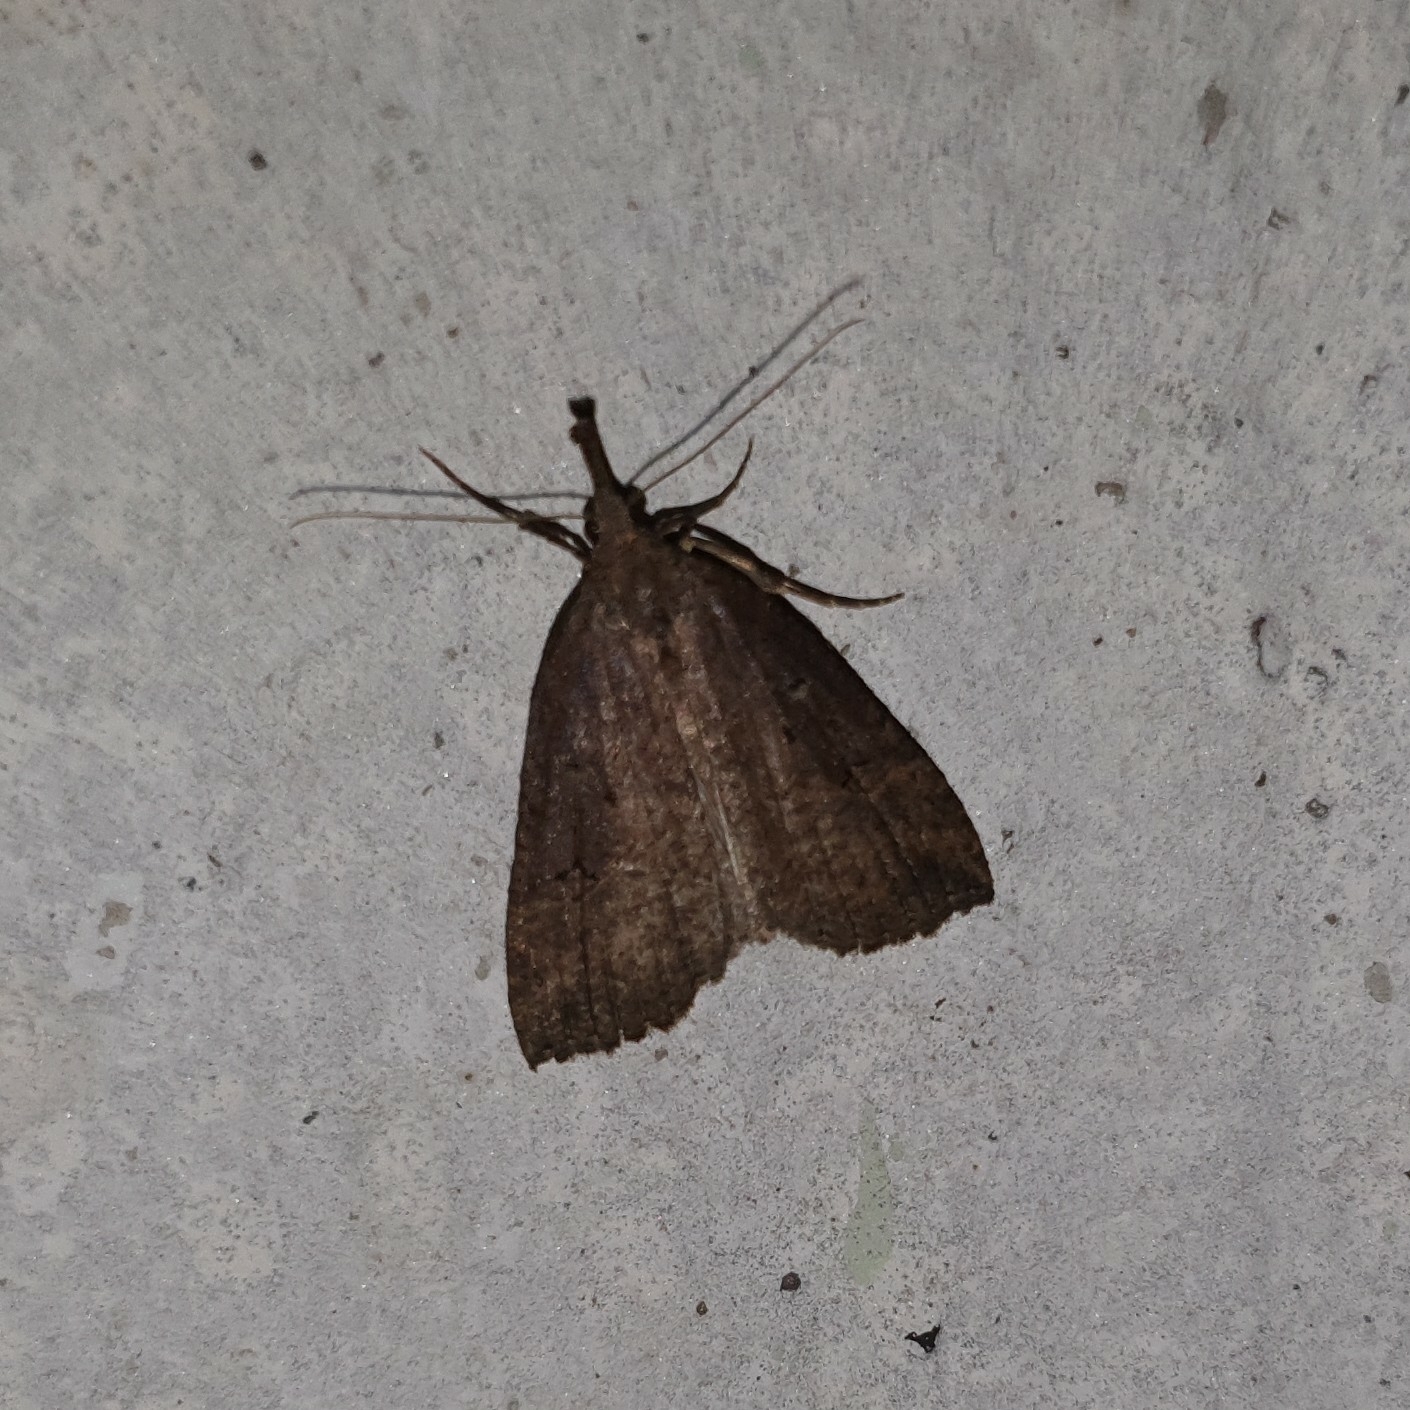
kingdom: Animalia
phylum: Arthropoda
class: Insecta
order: Lepidoptera
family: Erebidae
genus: Hypena
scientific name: Hypena rostralis
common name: Buttoned snout
